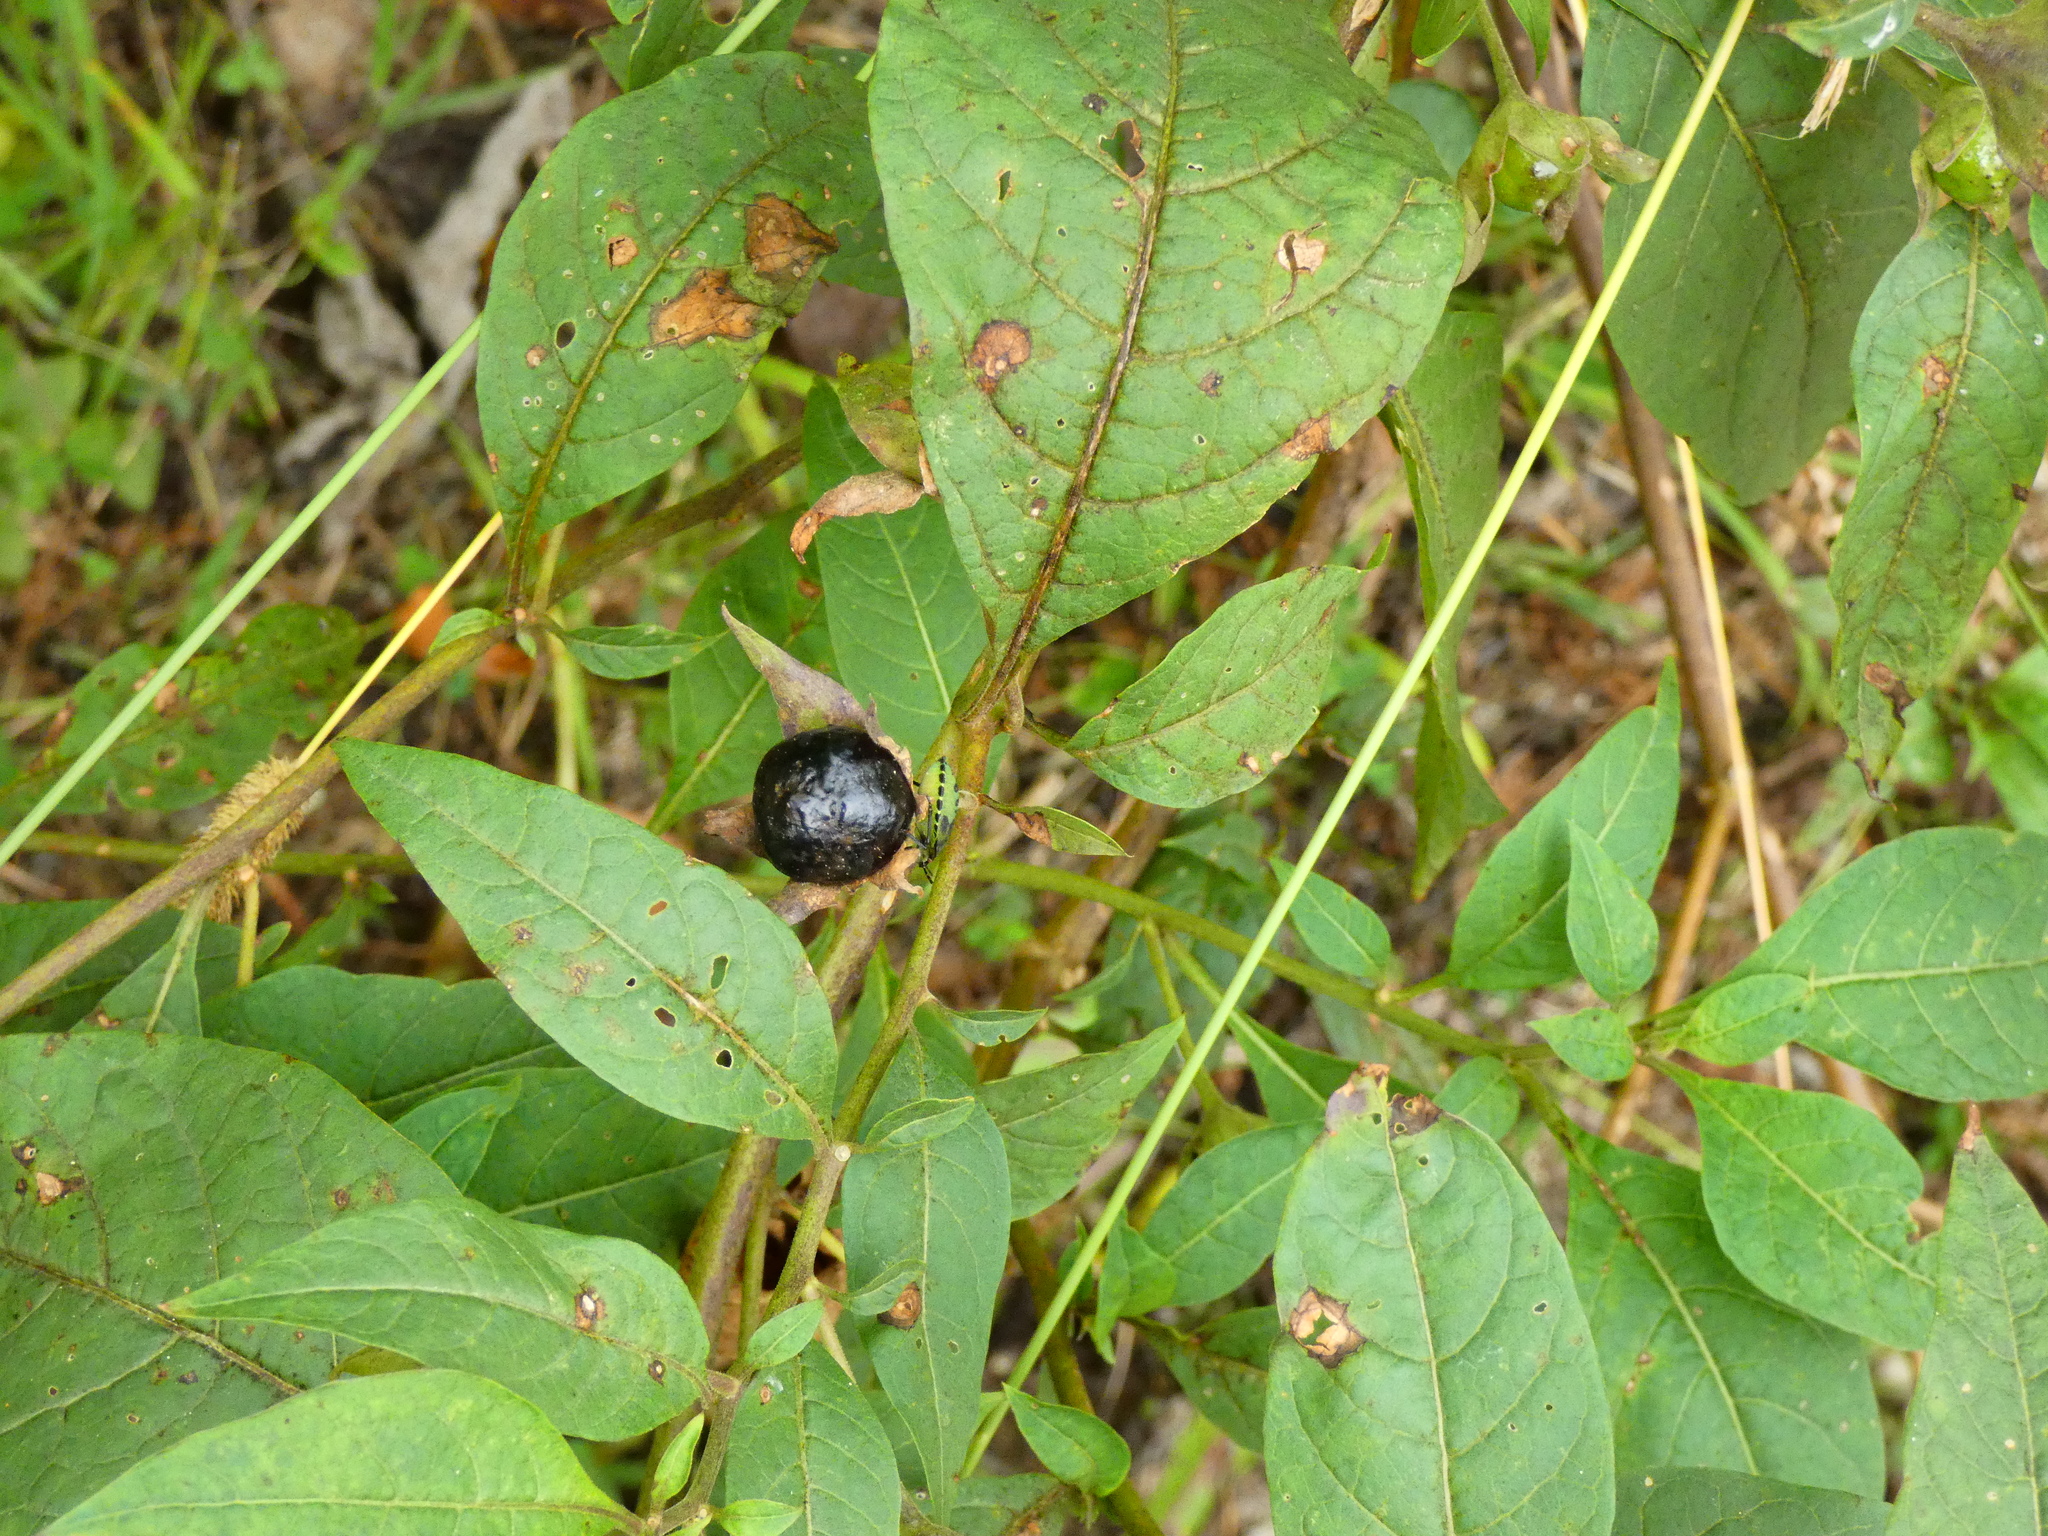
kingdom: Plantae
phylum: Tracheophyta
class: Magnoliopsida
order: Solanales
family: Solanaceae
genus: Atropa
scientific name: Atropa belladonna
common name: Deadly nightshade
